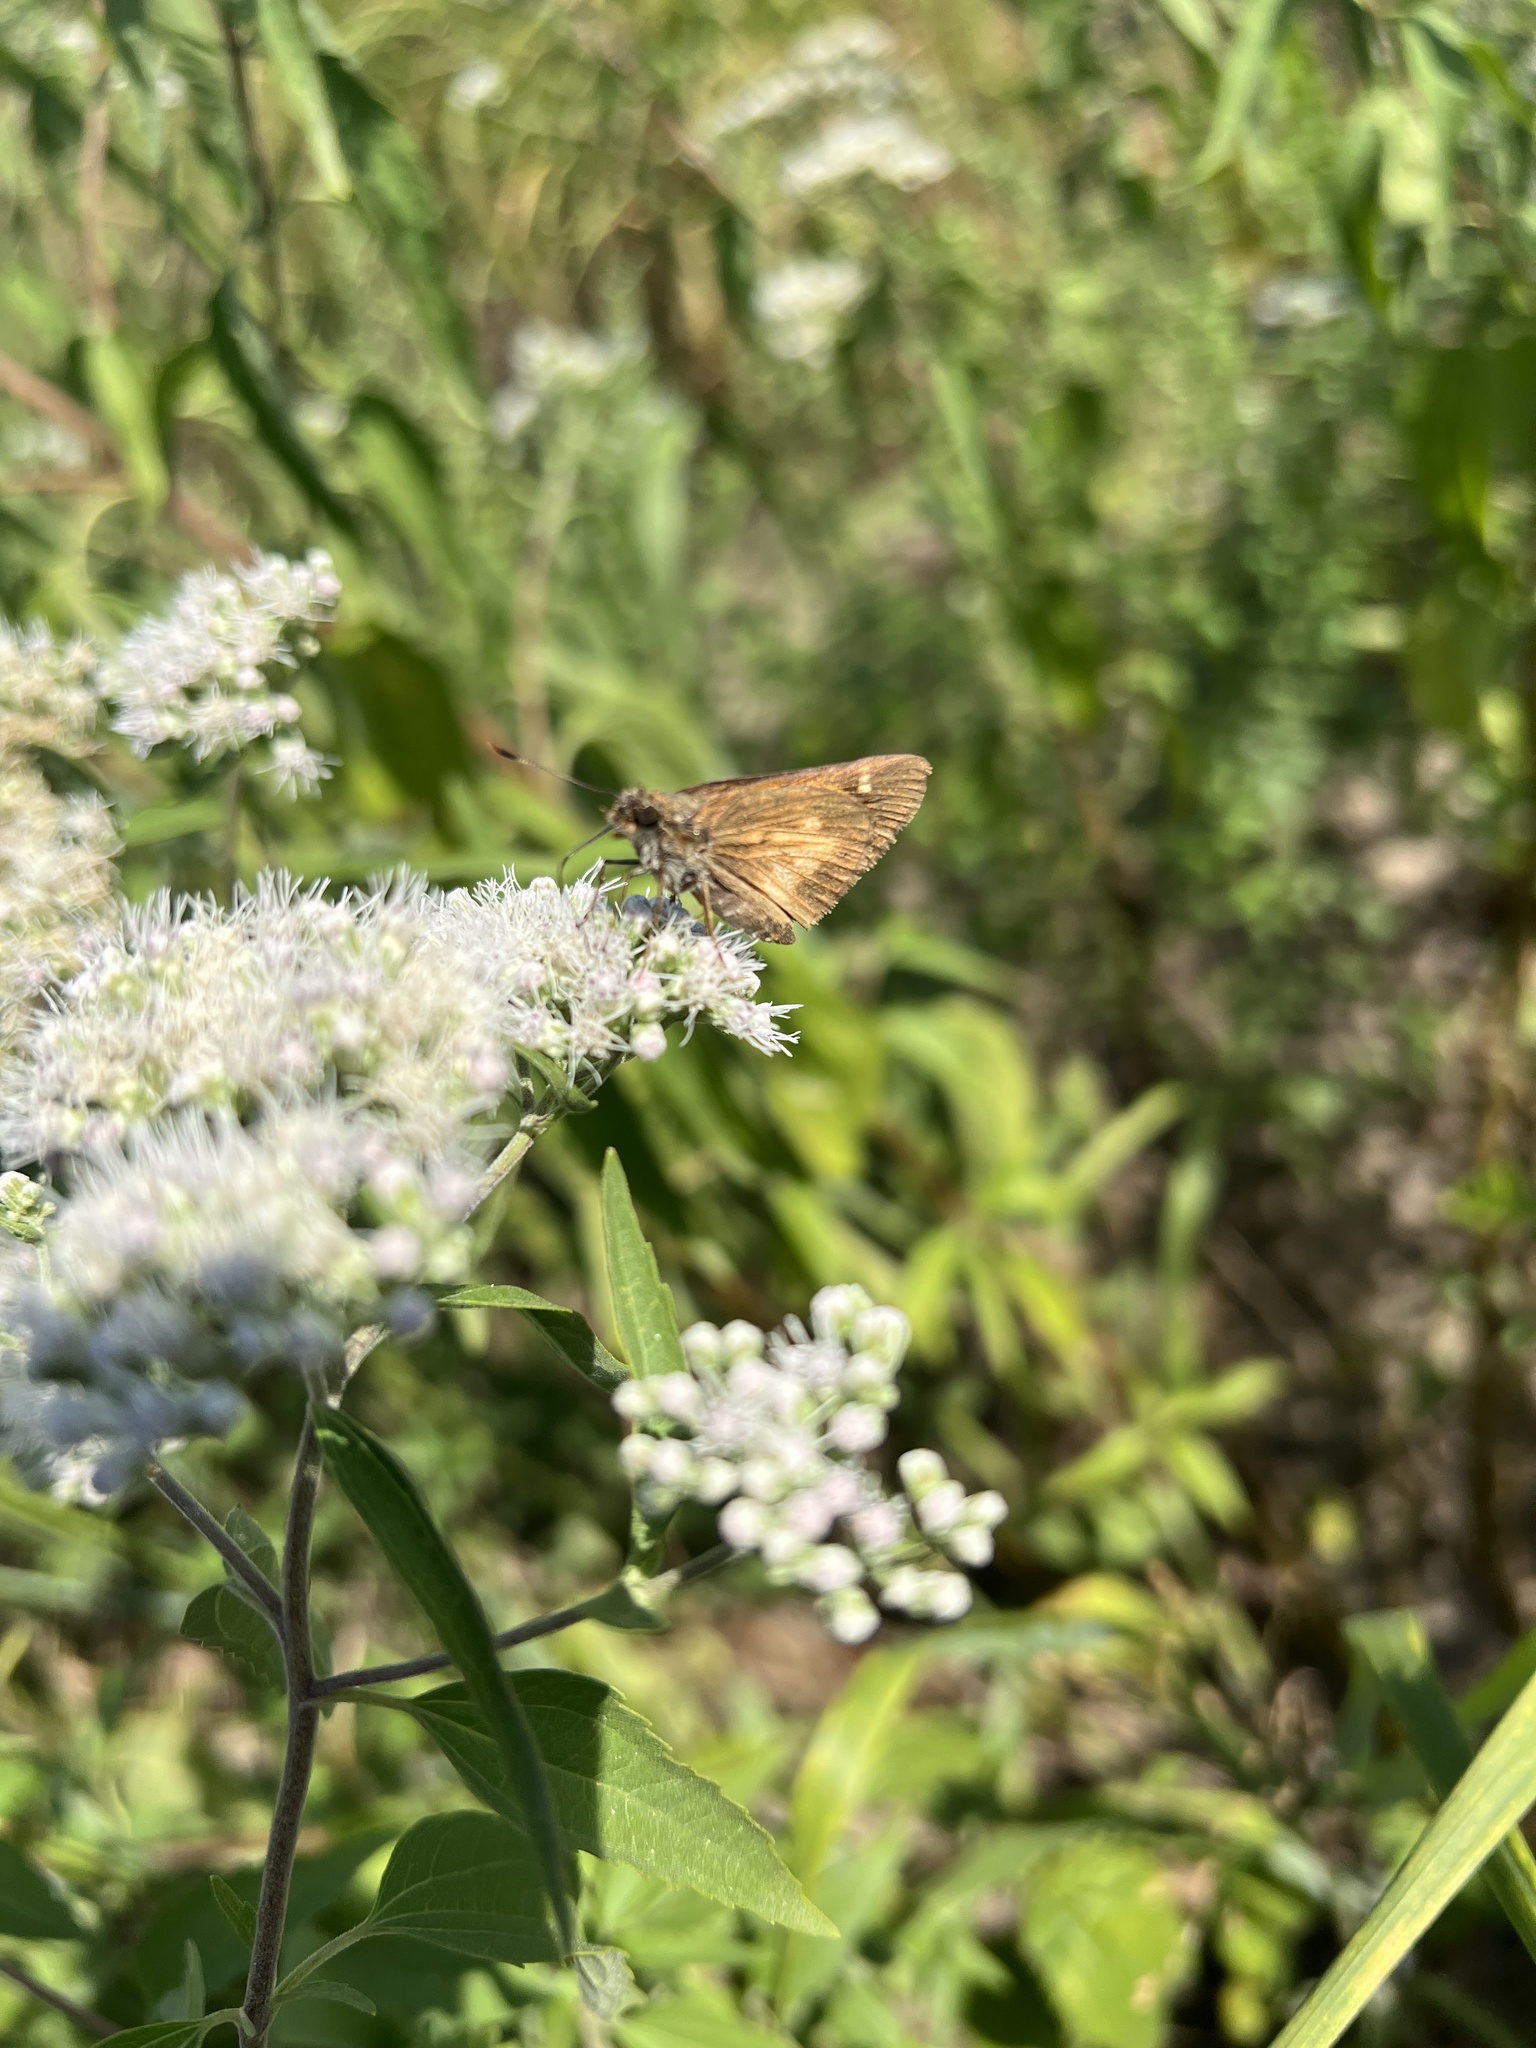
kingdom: Animalia
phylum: Arthropoda
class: Insecta
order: Lepidoptera
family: Hesperiidae
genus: Poanes
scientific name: Poanes viator
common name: Broad-winged skipper
